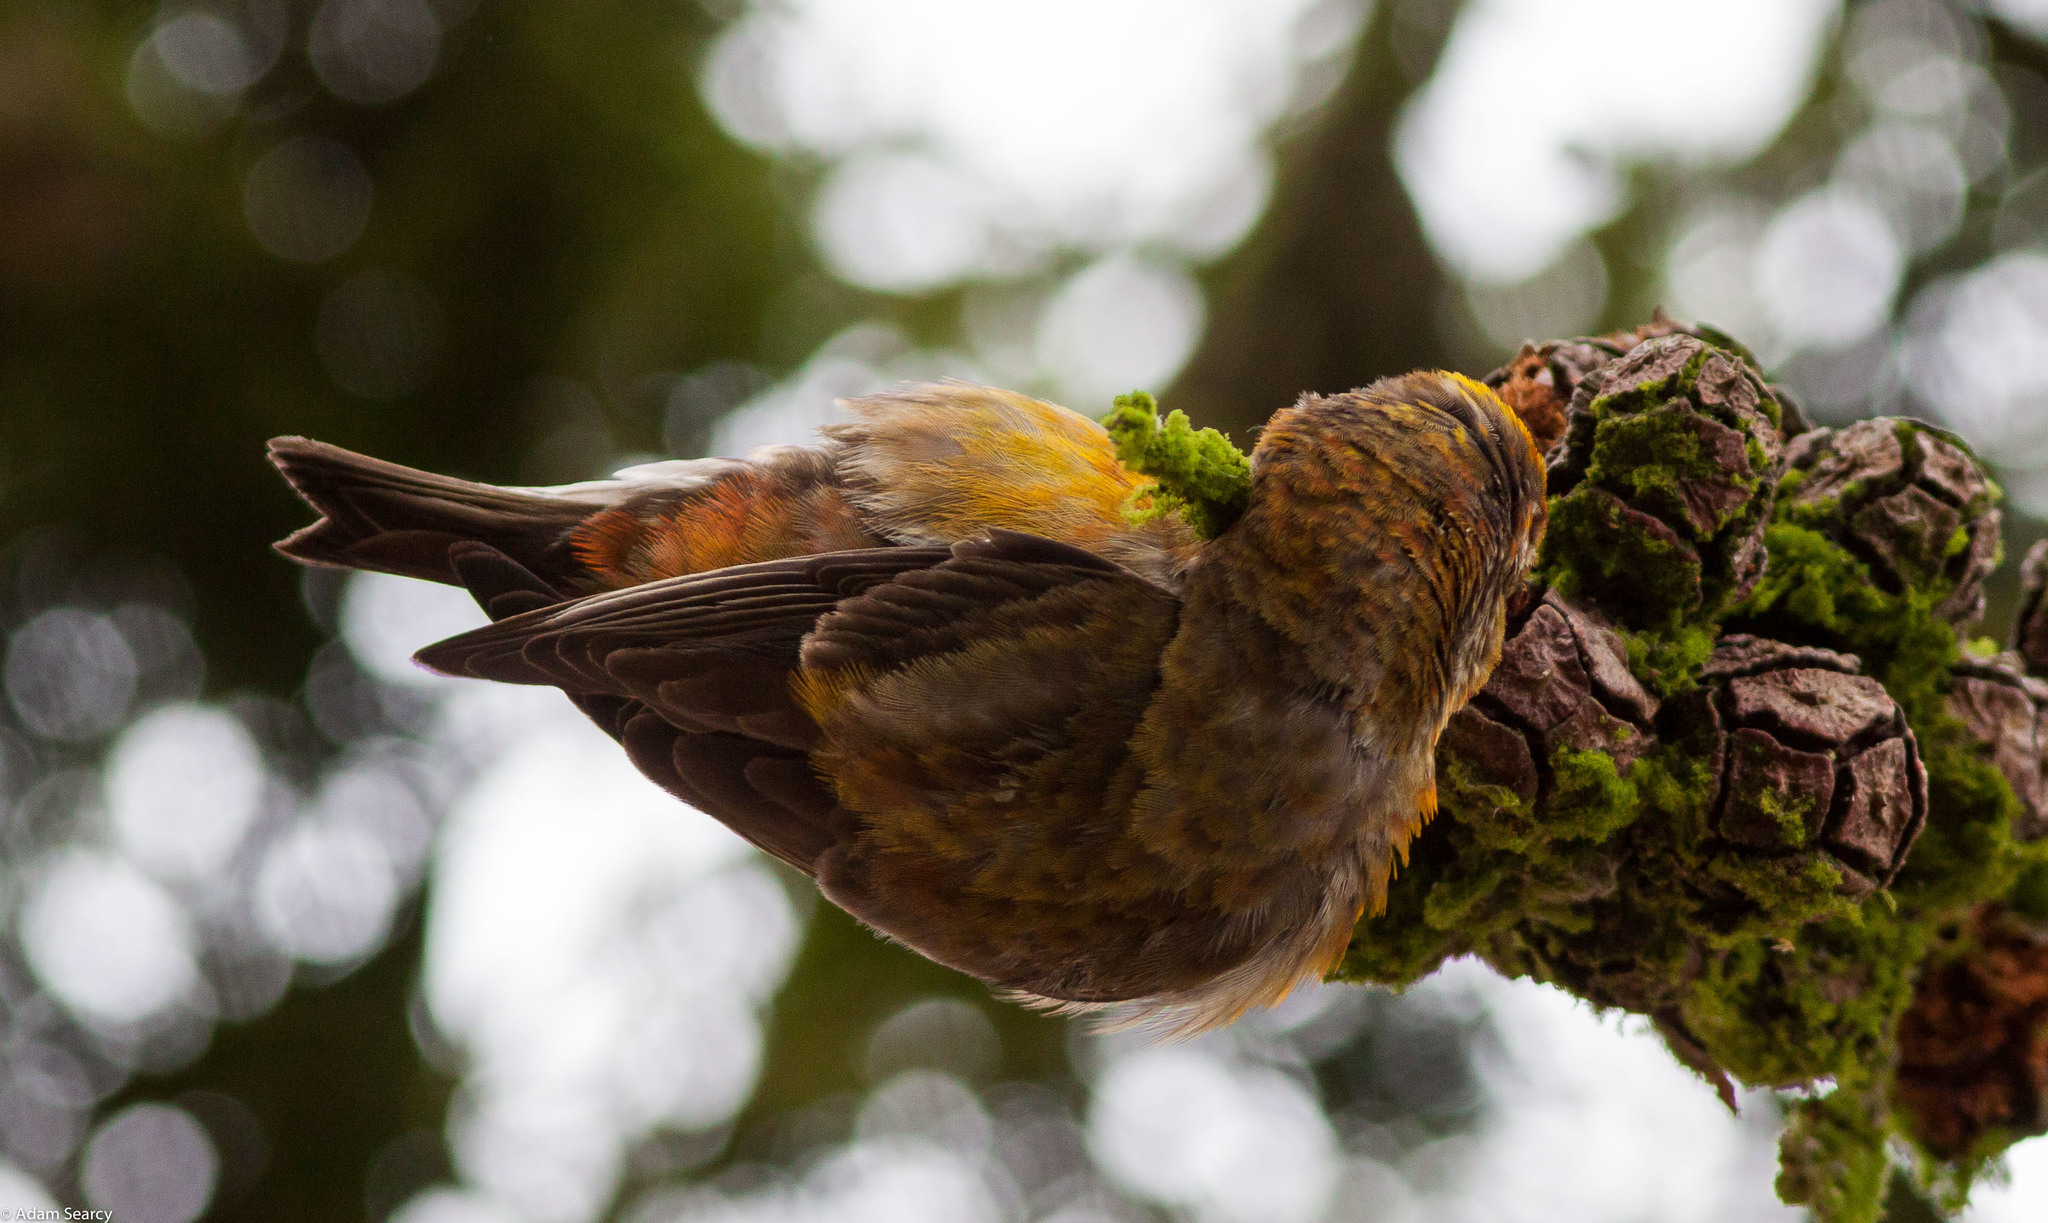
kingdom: Animalia
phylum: Chordata
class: Aves
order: Passeriformes
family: Fringillidae
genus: Loxia
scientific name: Loxia curvirostra
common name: Red crossbill
